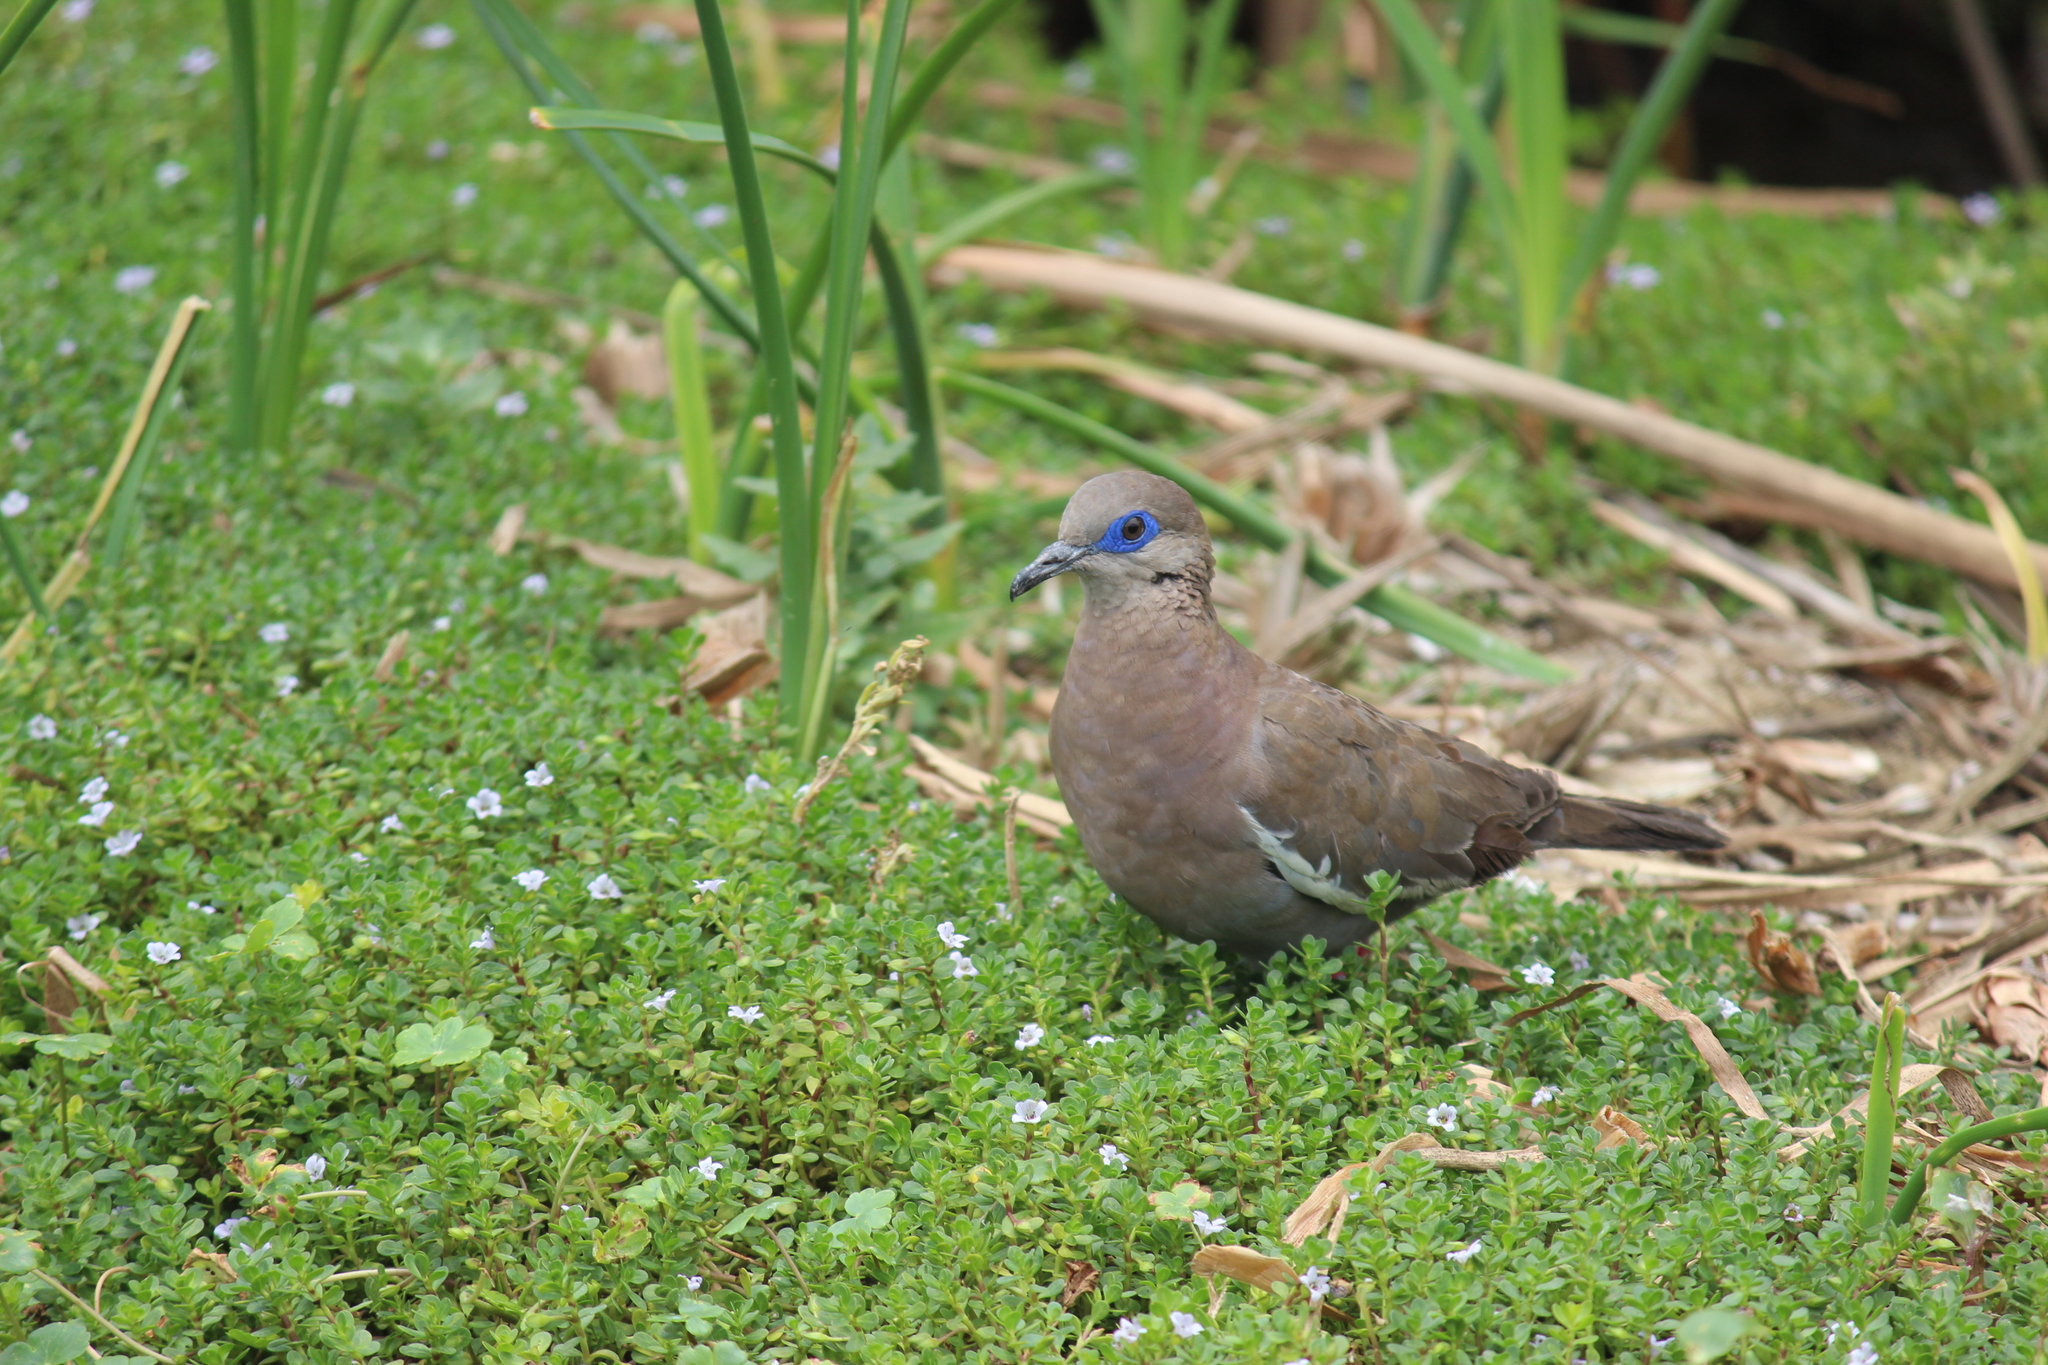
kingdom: Animalia
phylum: Chordata
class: Aves
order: Columbiformes
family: Columbidae
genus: Zenaida
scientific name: Zenaida meloda
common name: West peruvian dove
